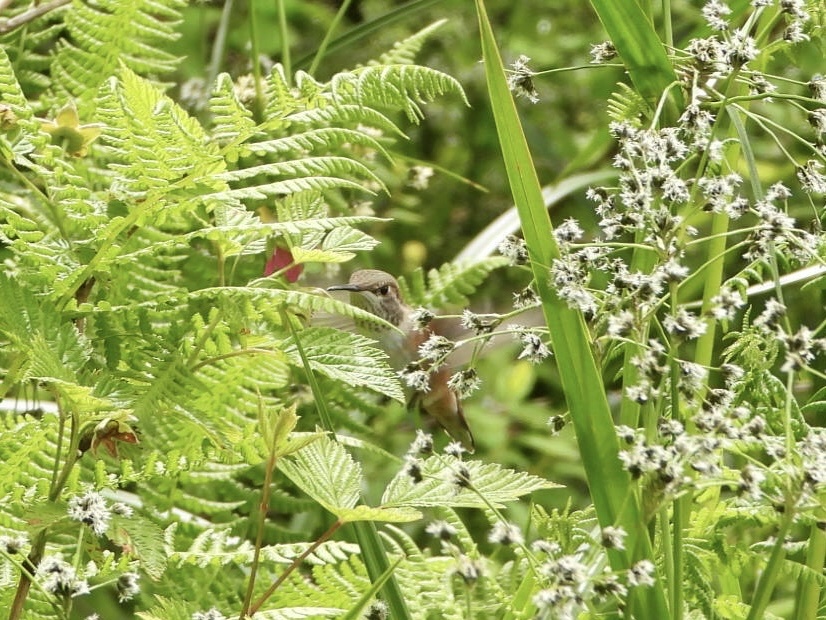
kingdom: Animalia
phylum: Chordata
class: Aves
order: Apodiformes
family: Trochilidae
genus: Selasphorus
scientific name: Selasphorus rufus
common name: Rufous hummingbird
